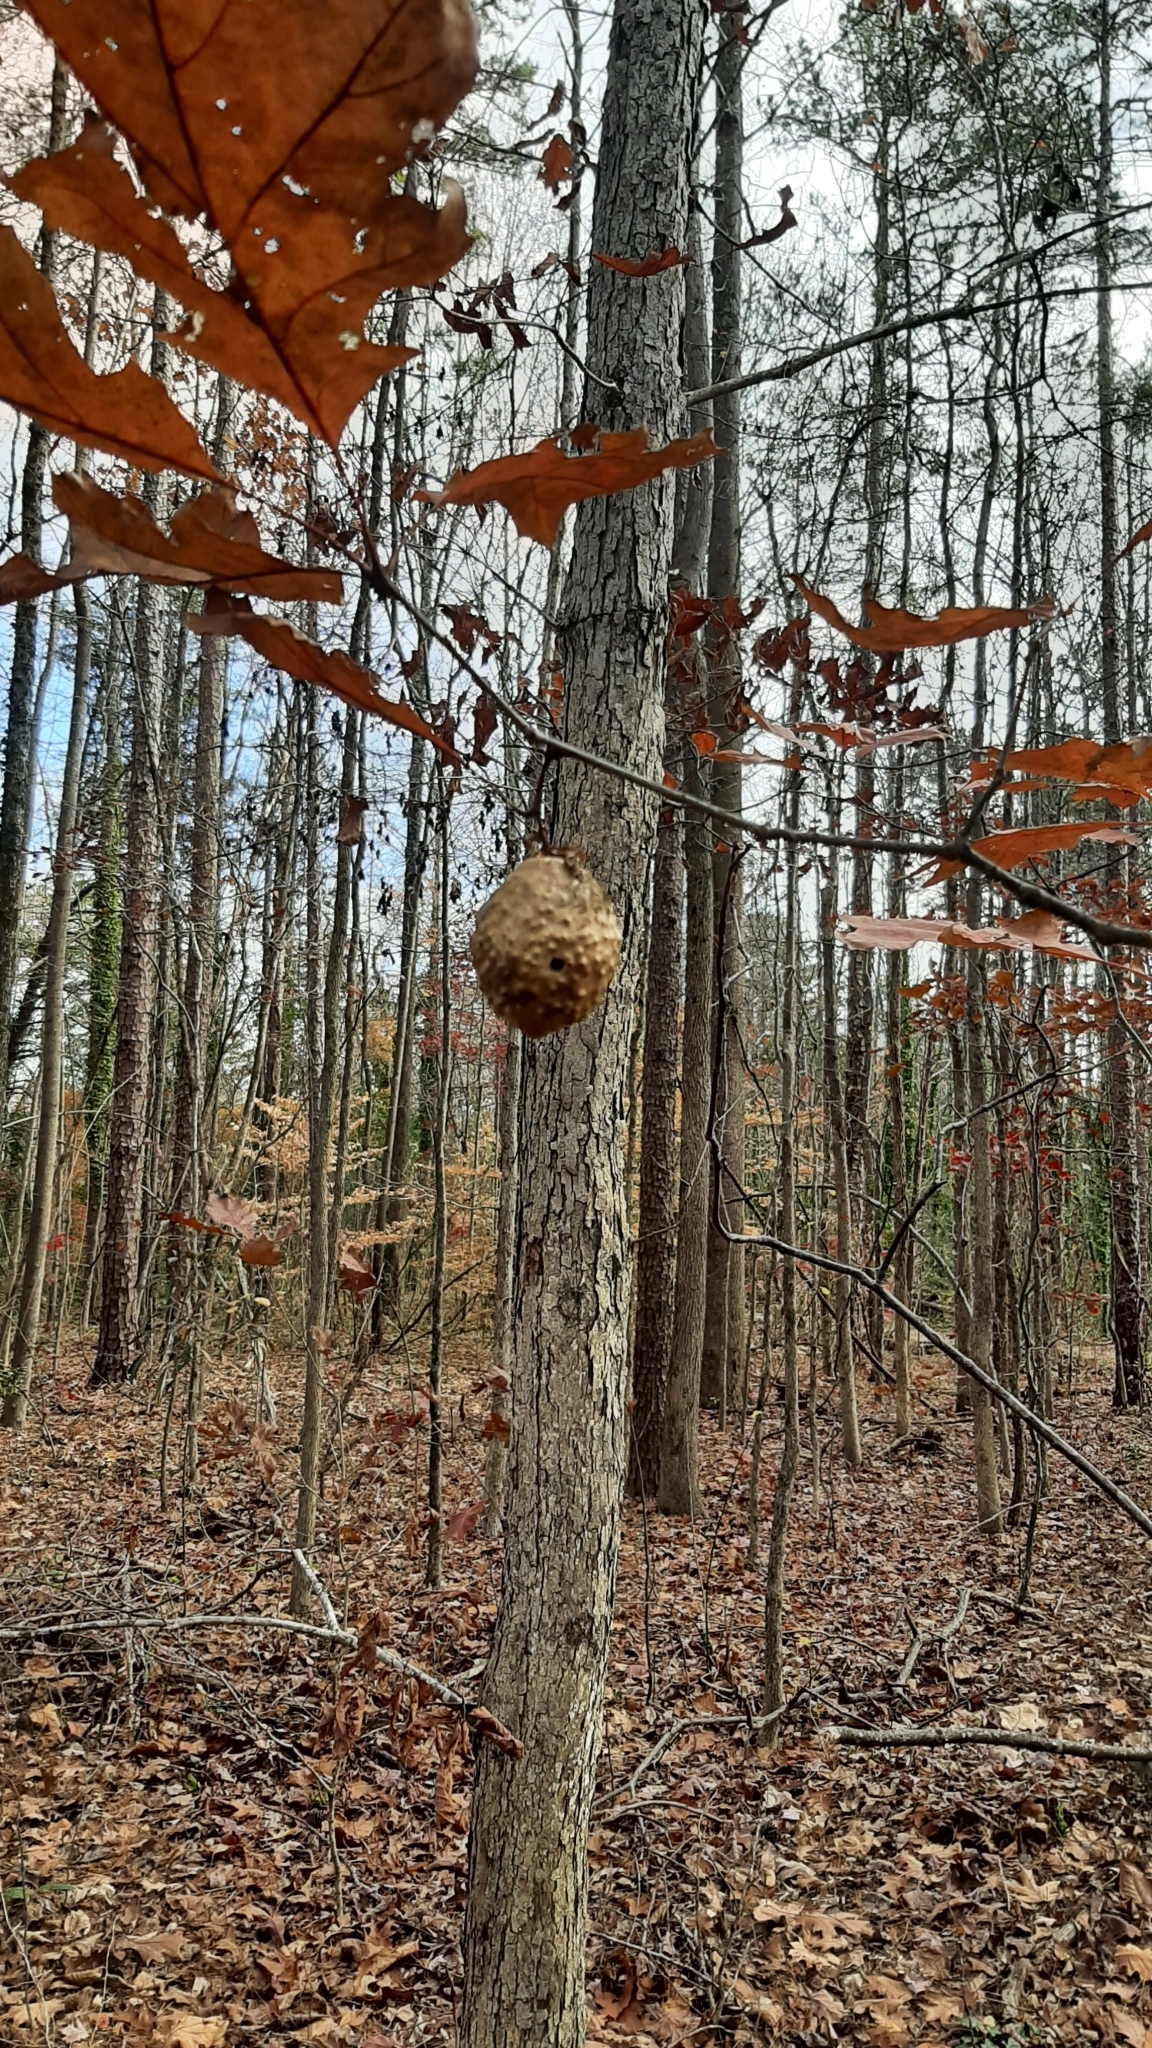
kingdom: Animalia
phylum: Arthropoda
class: Insecta
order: Hymenoptera
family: Cynipidae
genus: Amphibolips
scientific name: Amphibolips
